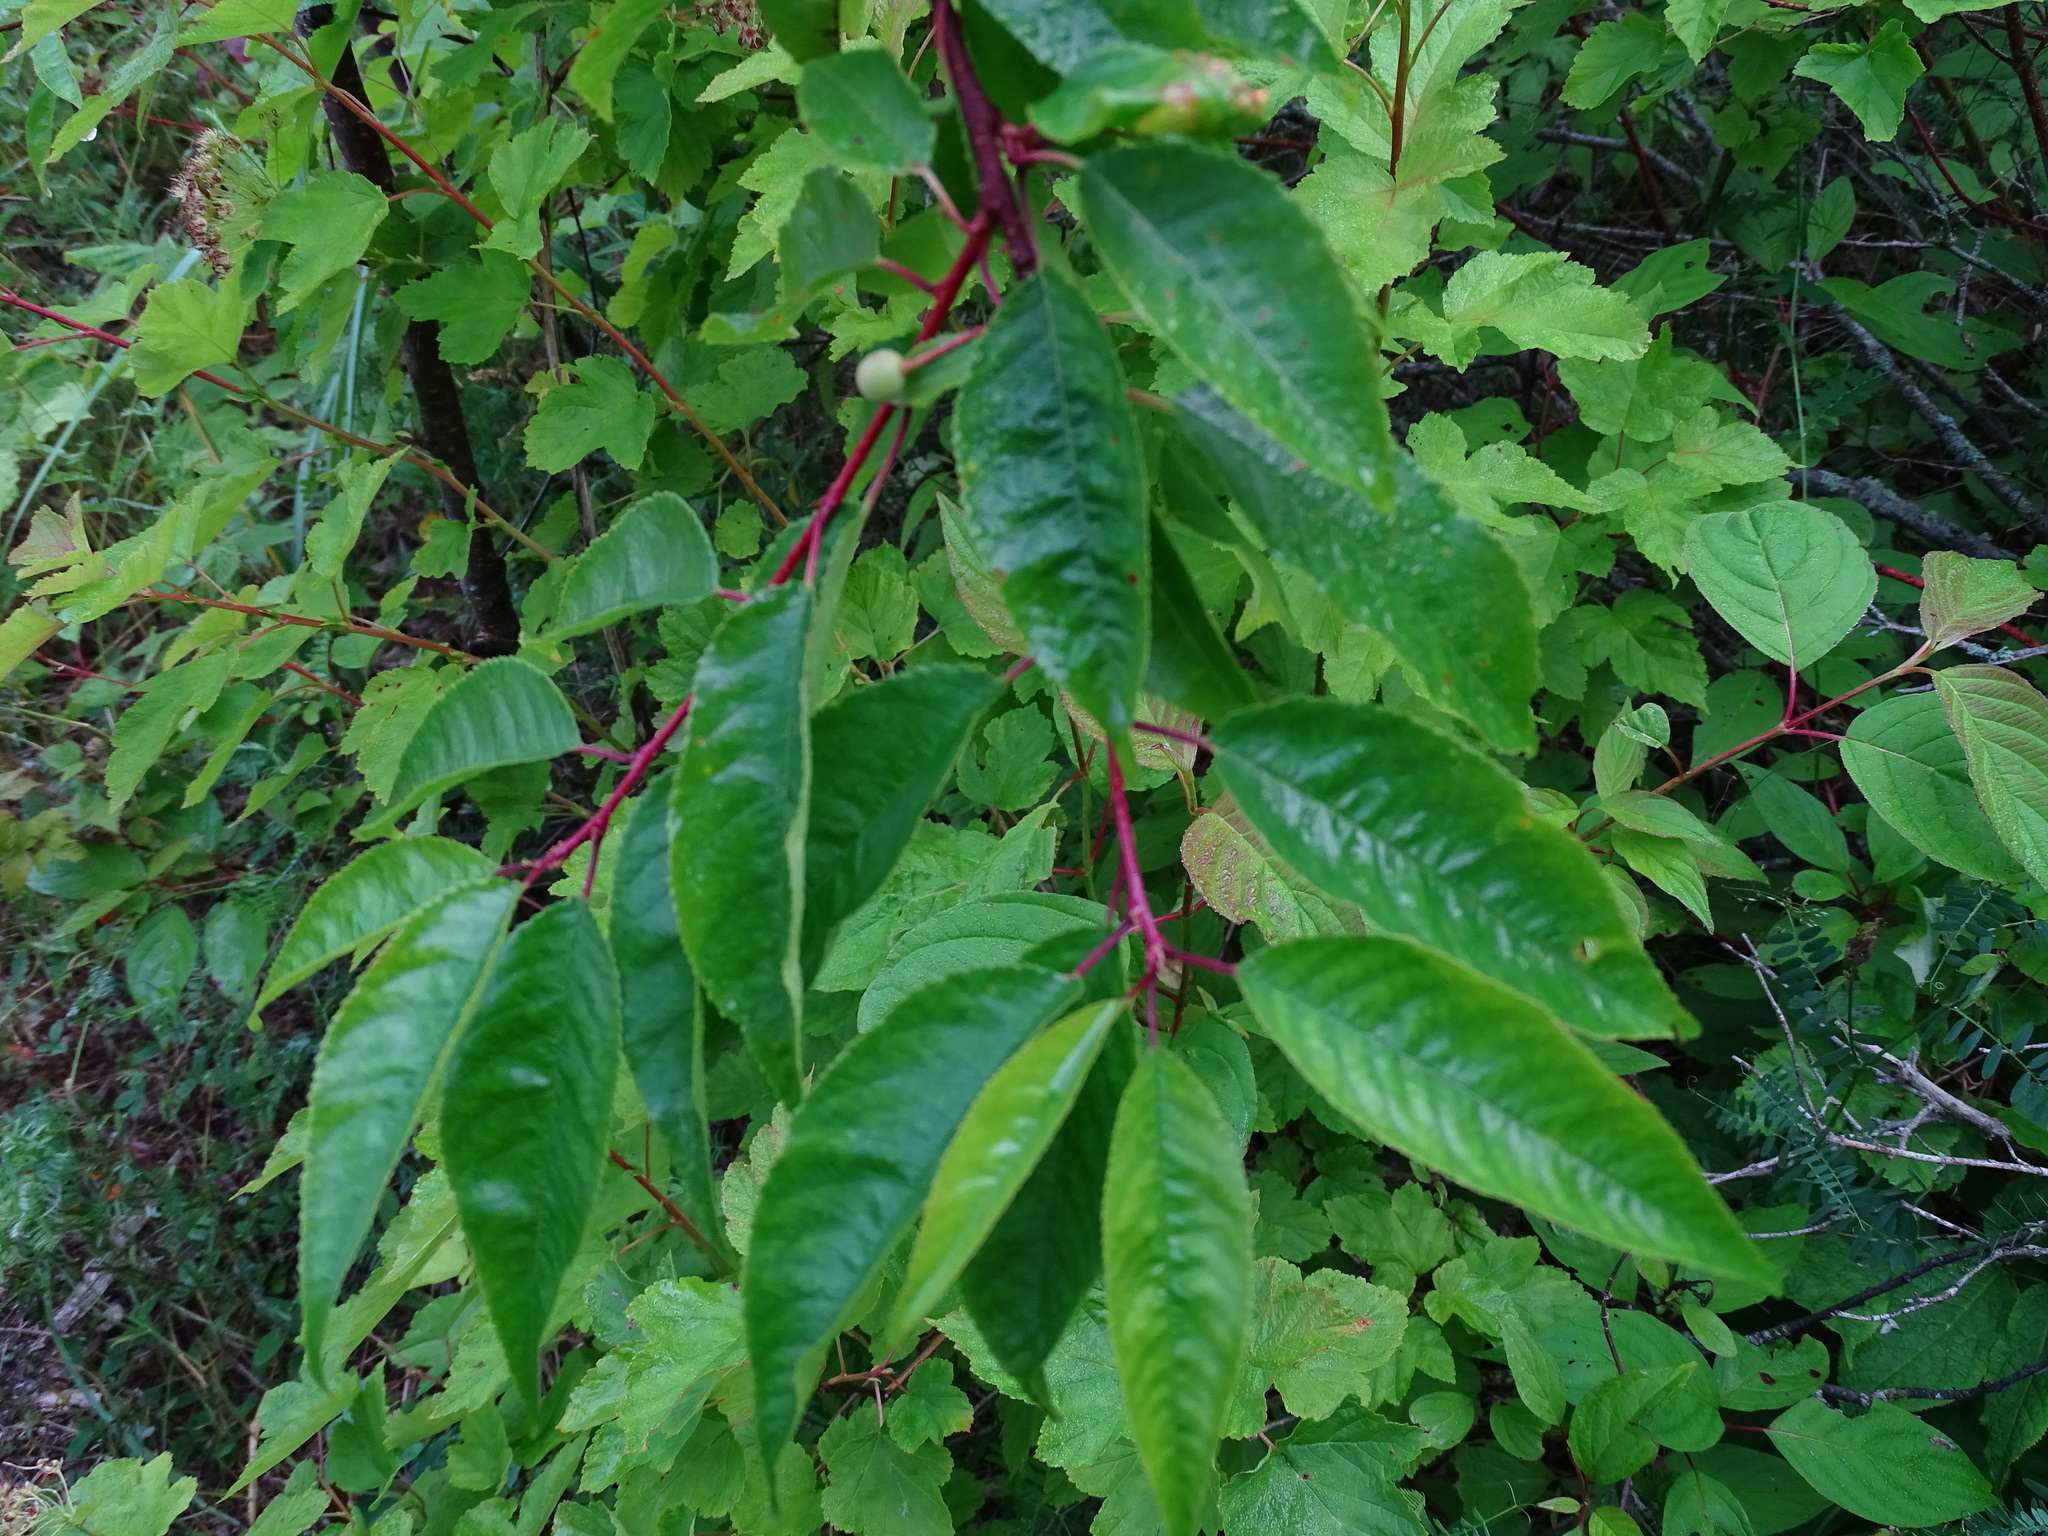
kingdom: Plantae
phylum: Tracheophyta
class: Magnoliopsida
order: Rosales
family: Rosaceae
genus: Prunus
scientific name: Prunus pensylvanica
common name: Pin cherry
